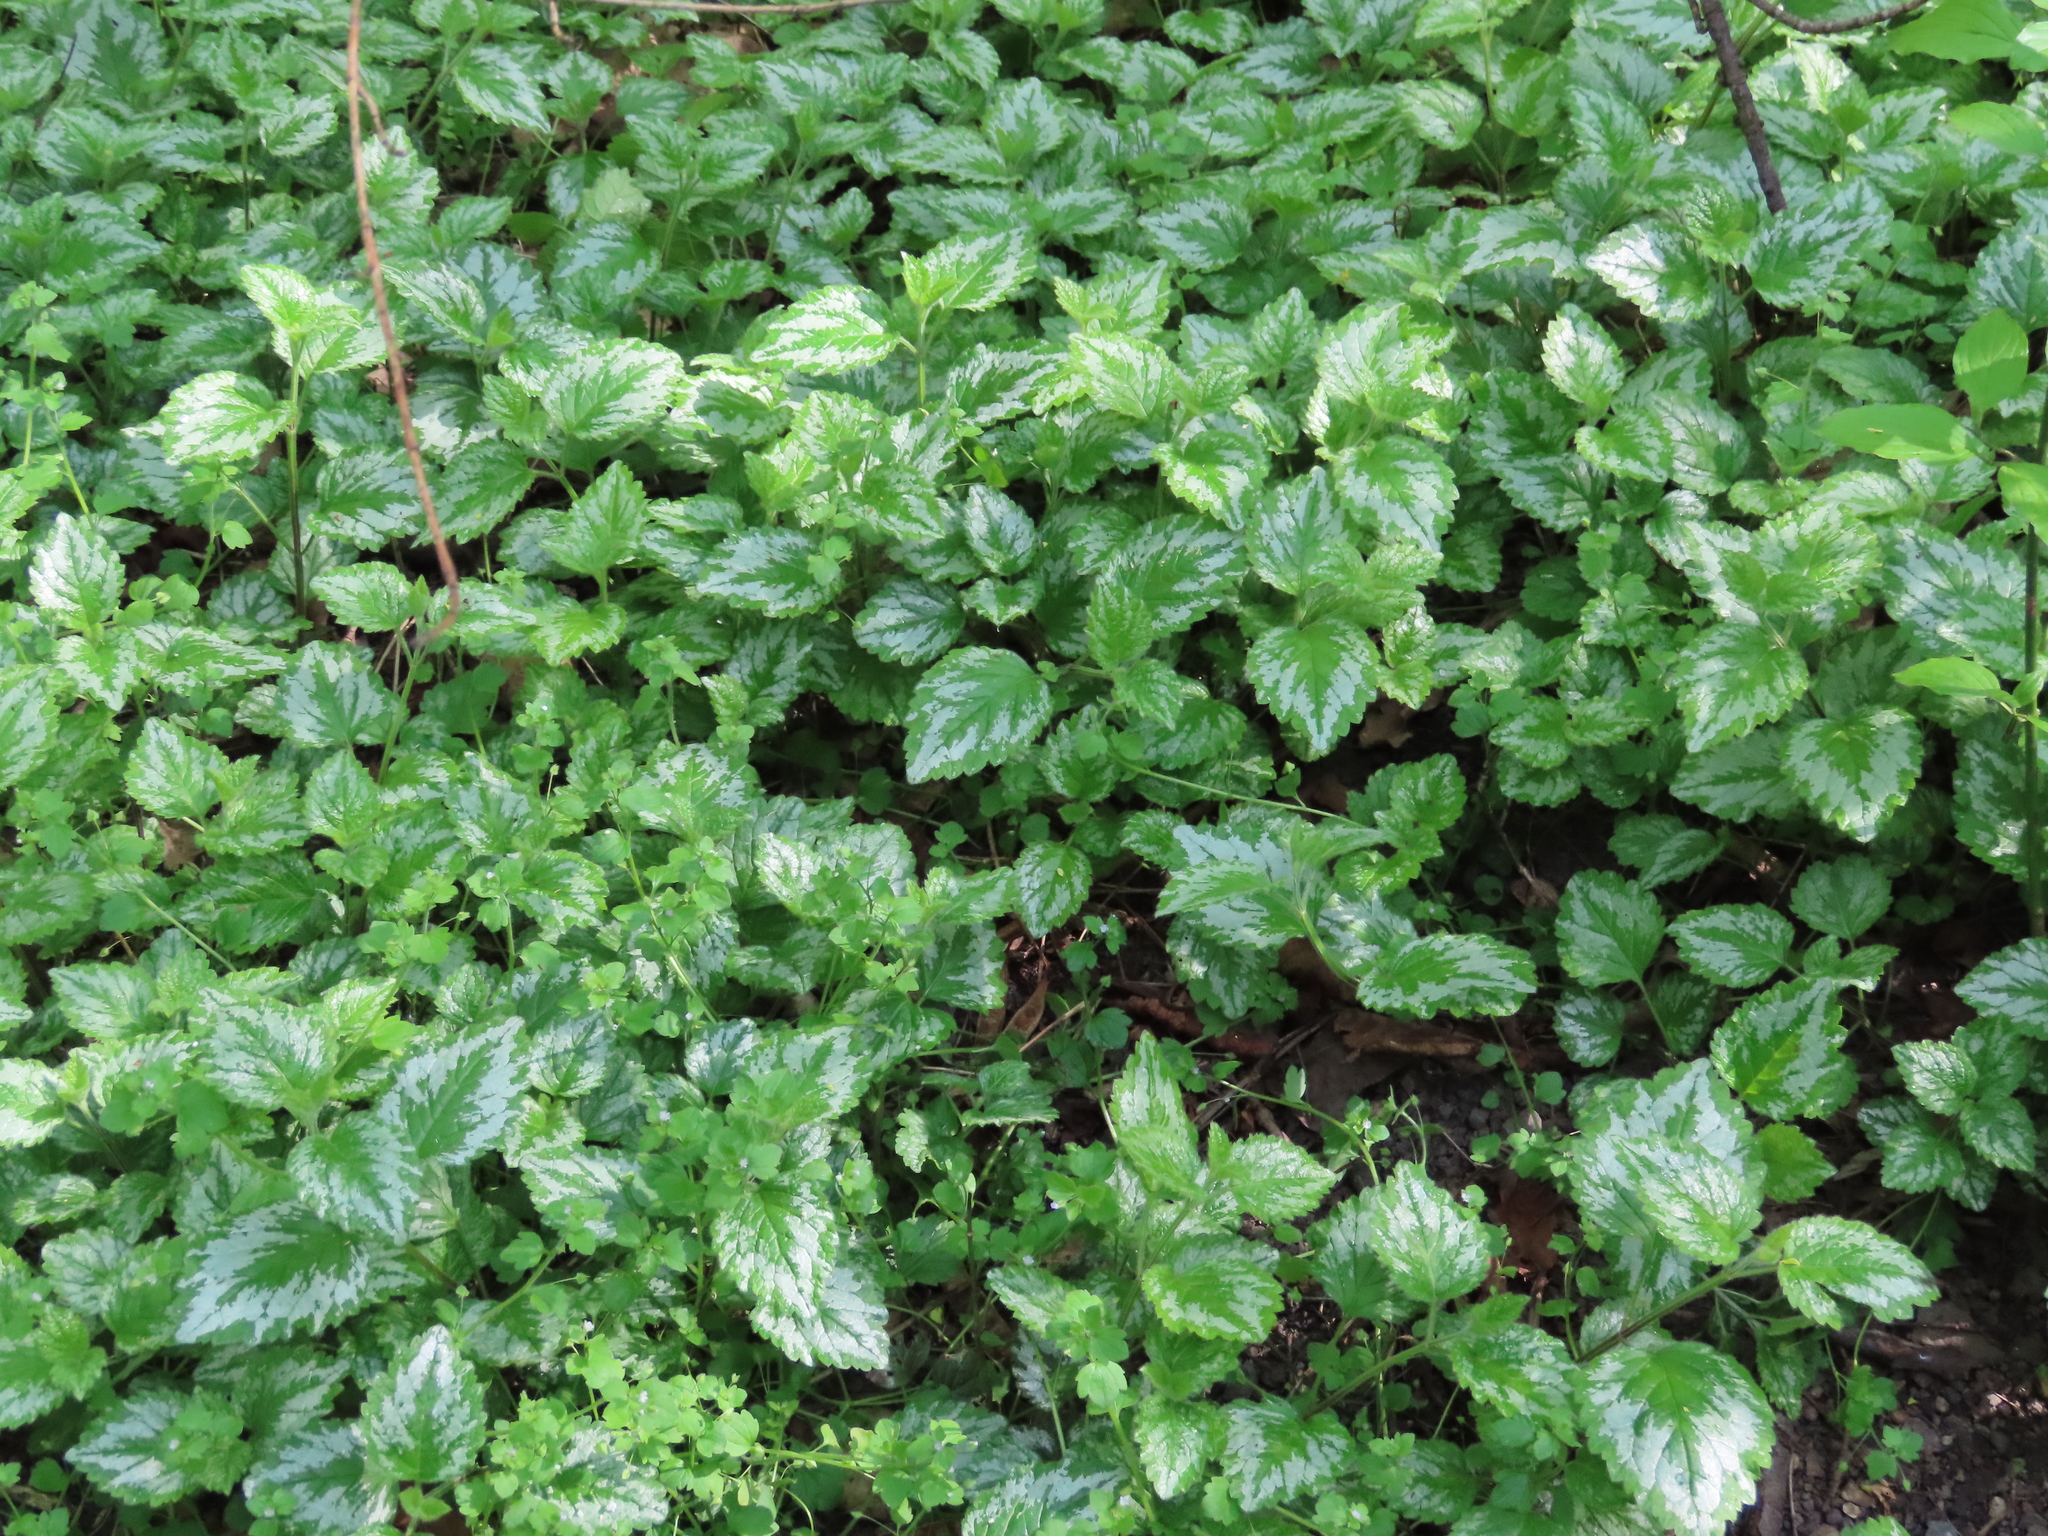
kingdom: Plantae
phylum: Tracheophyta
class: Magnoliopsida
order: Lamiales
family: Lamiaceae
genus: Lamium
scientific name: Lamium galeobdolon
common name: Yellow archangel
